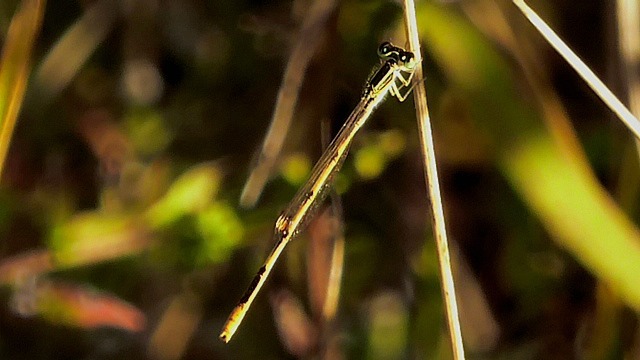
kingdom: Animalia
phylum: Arthropoda
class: Insecta
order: Odonata
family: Coenagrionidae
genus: Ischnura
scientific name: Ischnura hastata
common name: Citrine forktail
